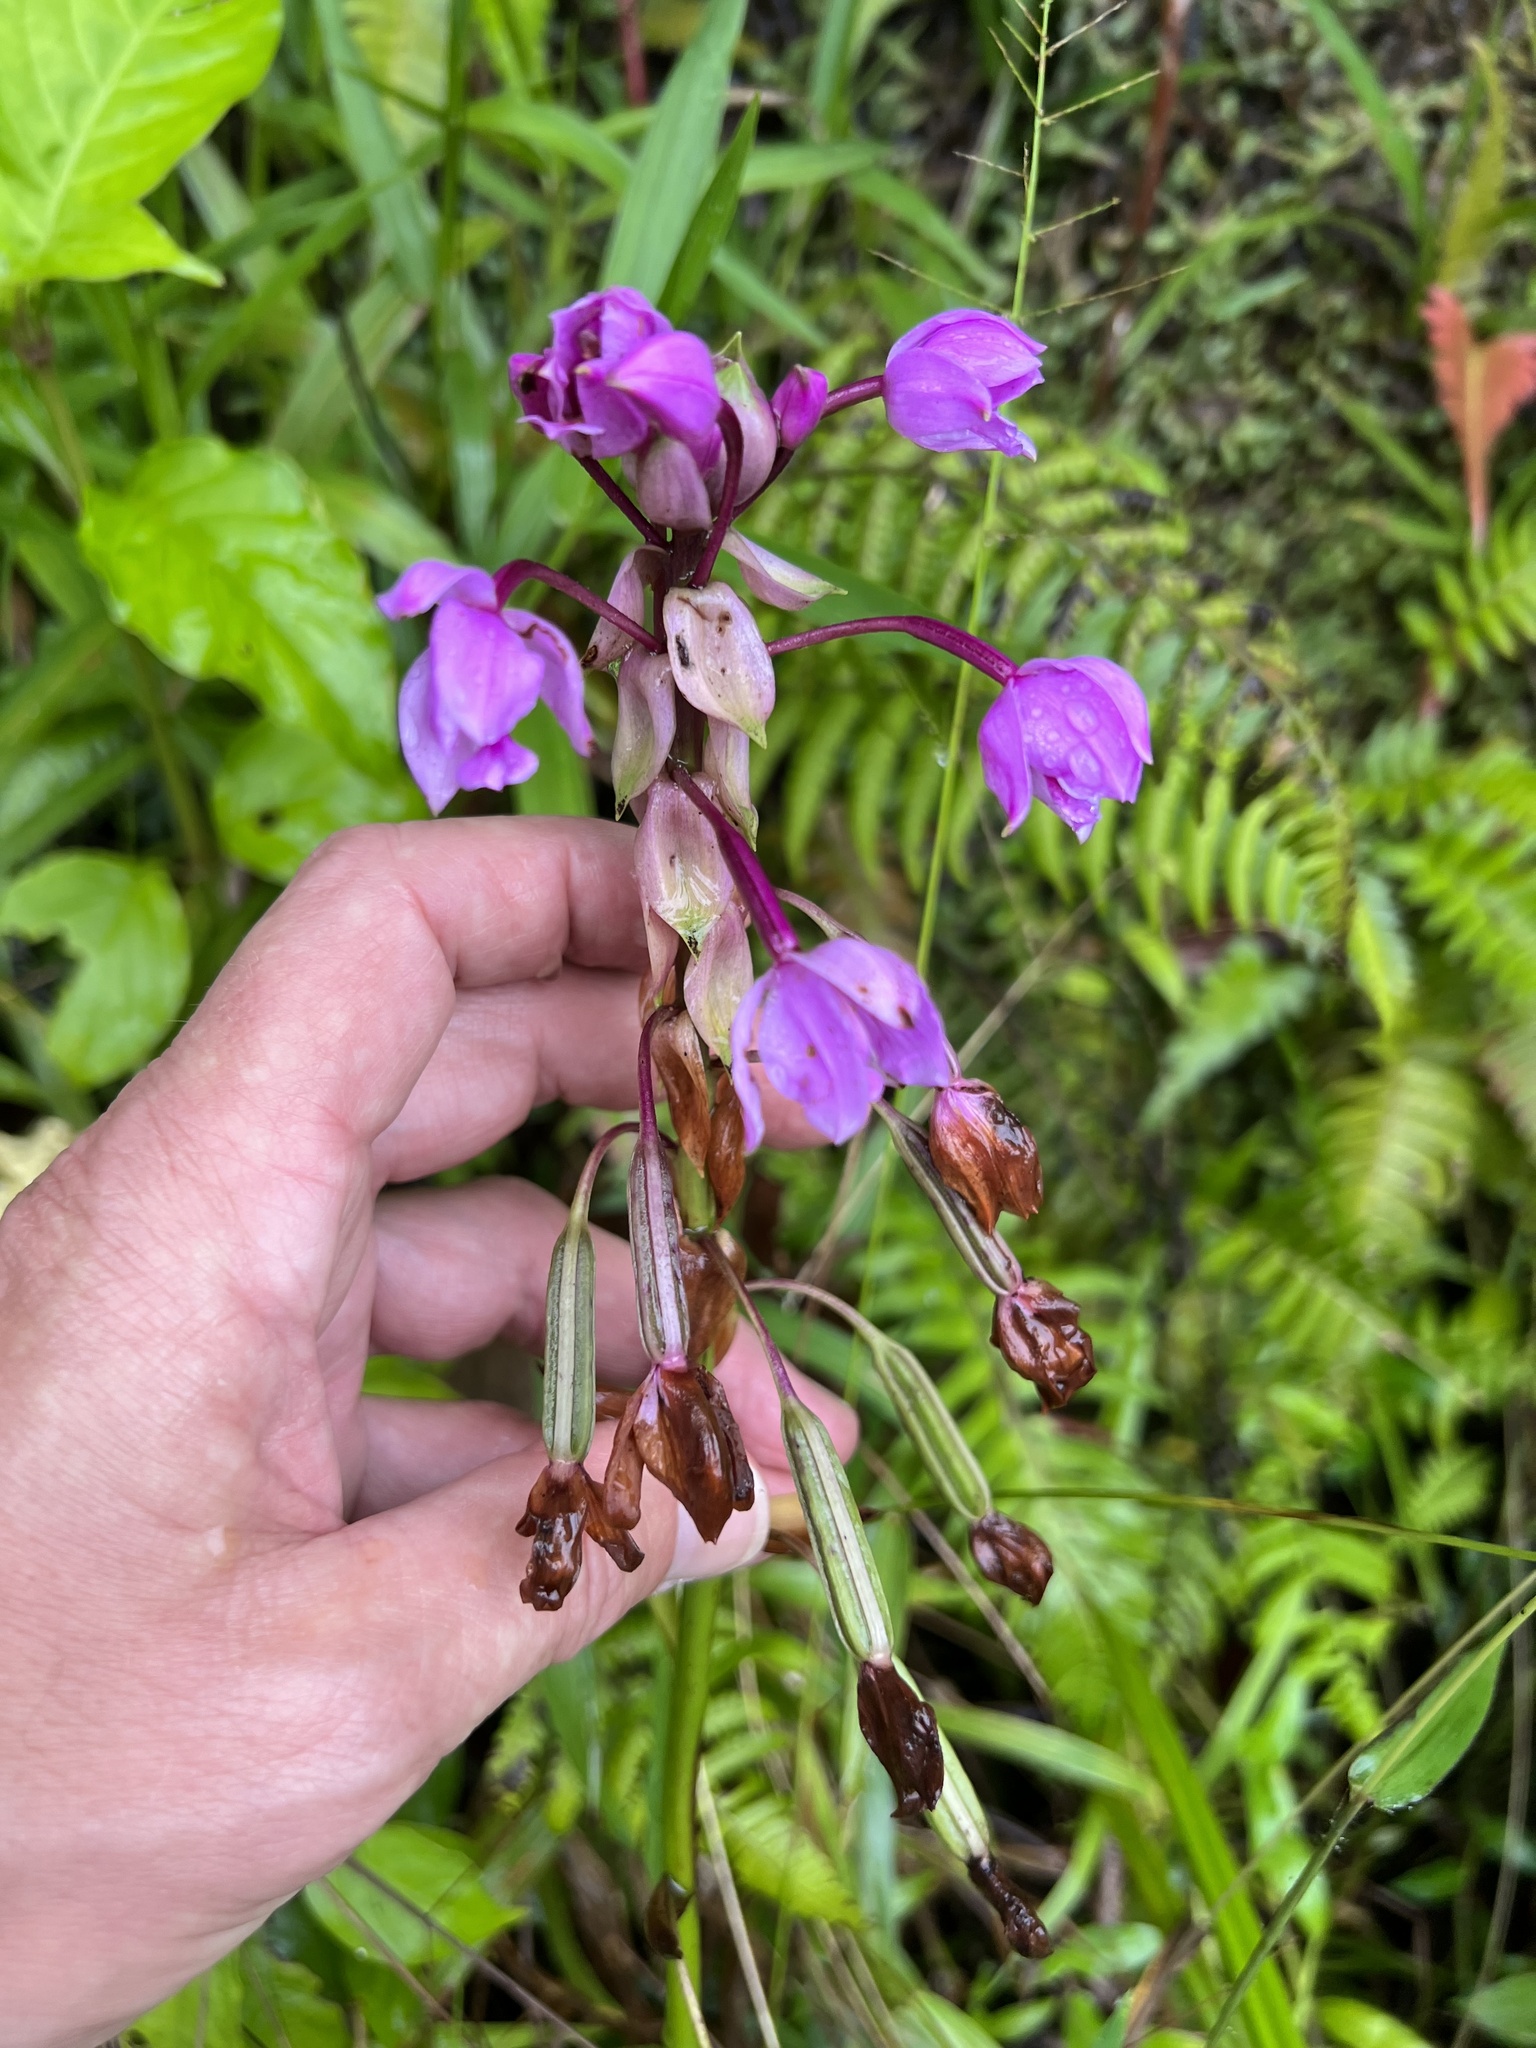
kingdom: Plantae
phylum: Tracheophyta
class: Liliopsida
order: Asparagales
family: Orchidaceae
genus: Spathoglottis
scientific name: Spathoglottis plicata
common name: Philippine ground orchid
